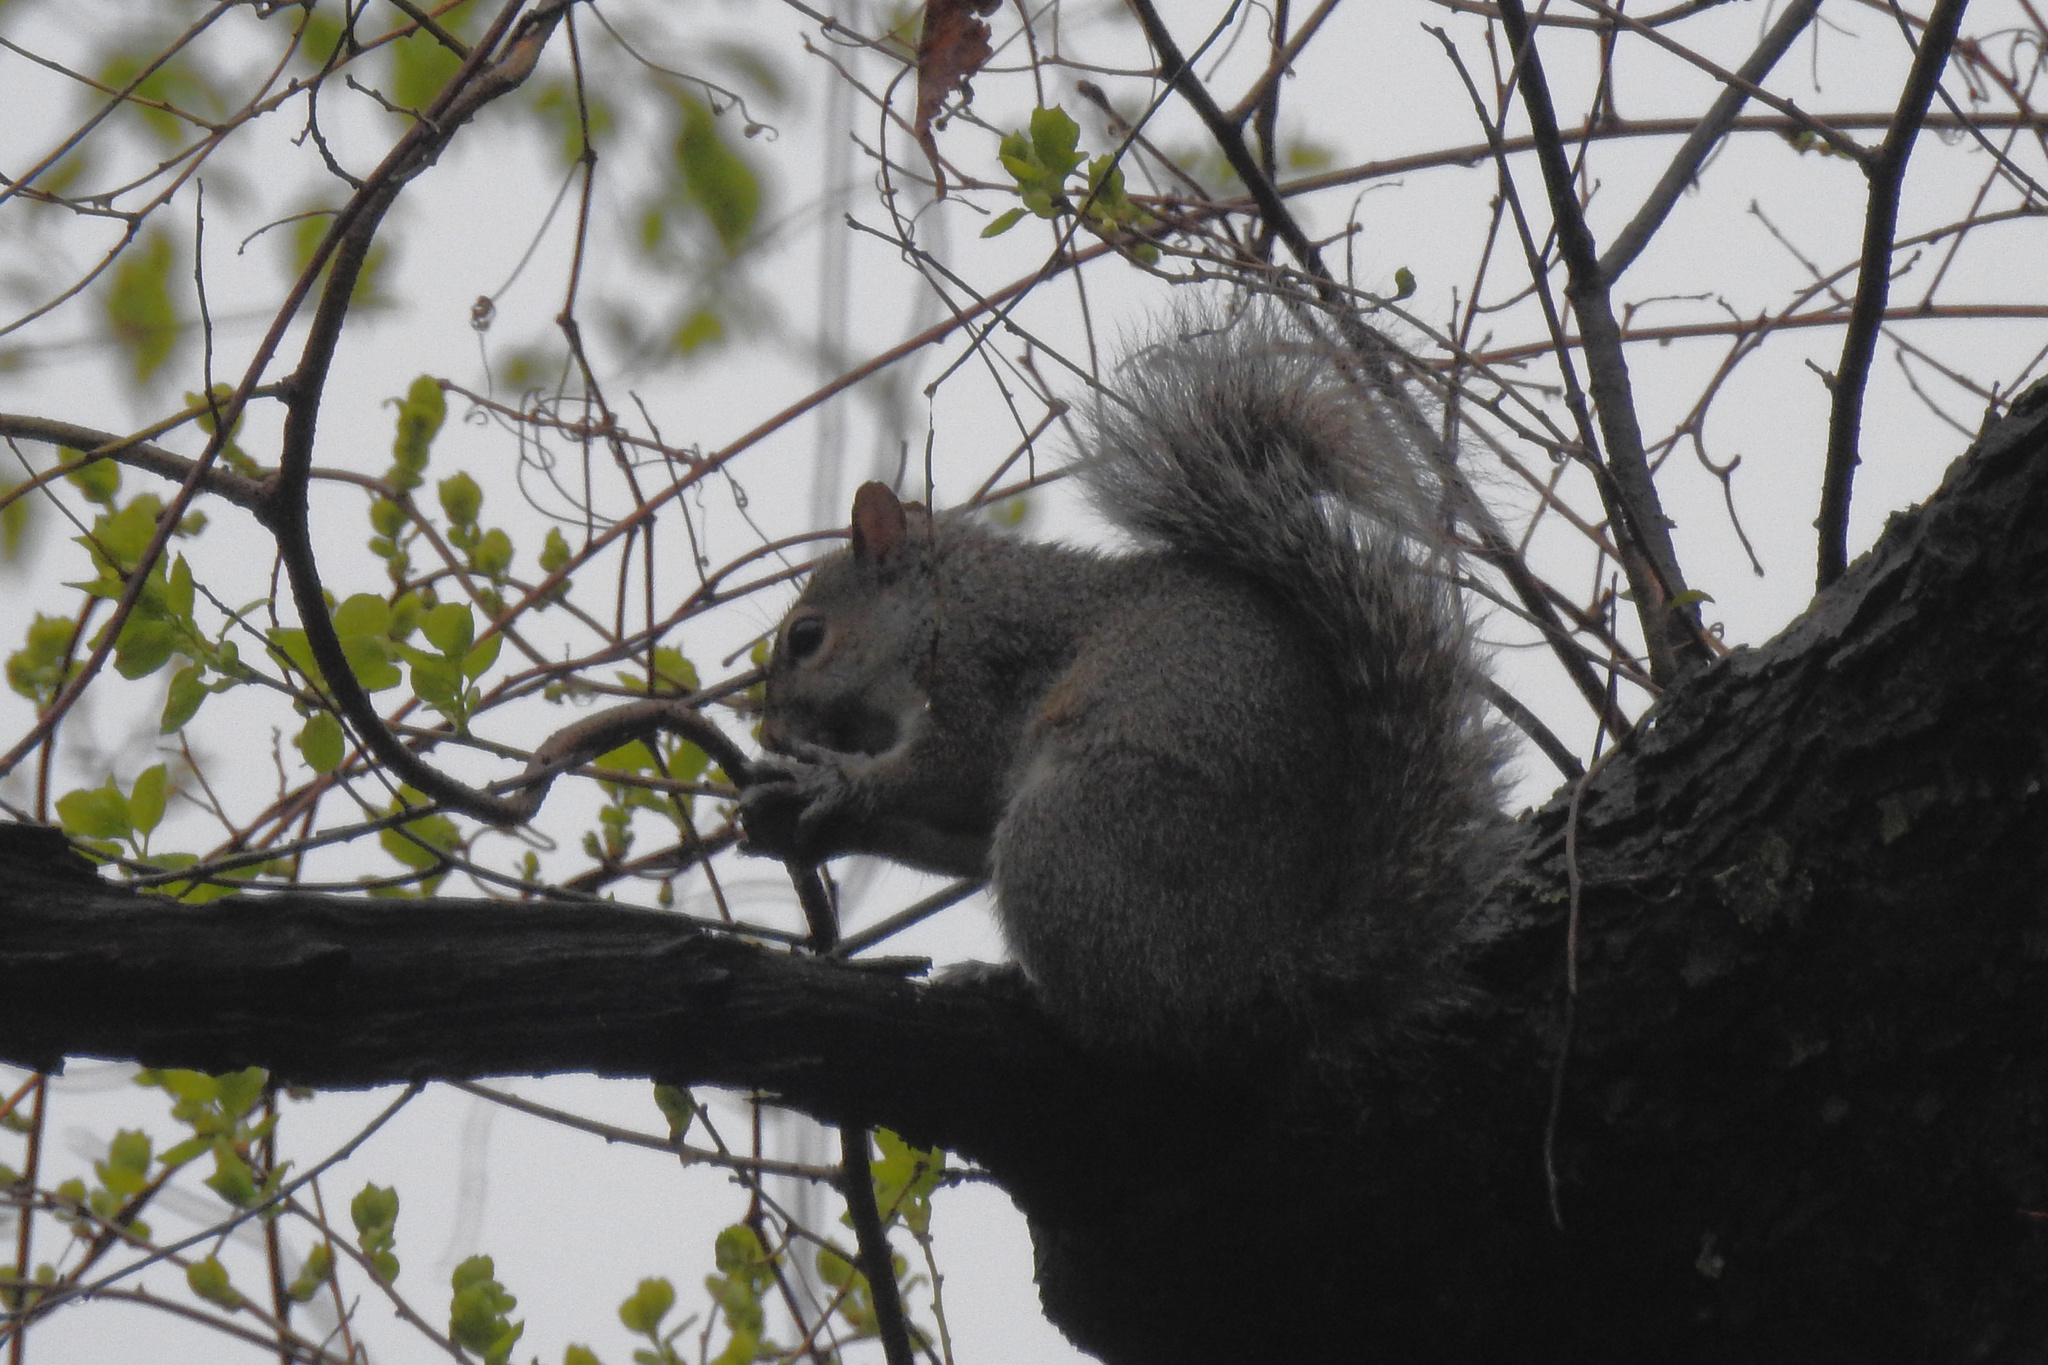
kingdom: Animalia
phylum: Chordata
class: Mammalia
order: Rodentia
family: Sciuridae
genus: Sciurus
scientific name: Sciurus carolinensis
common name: Eastern gray squirrel
